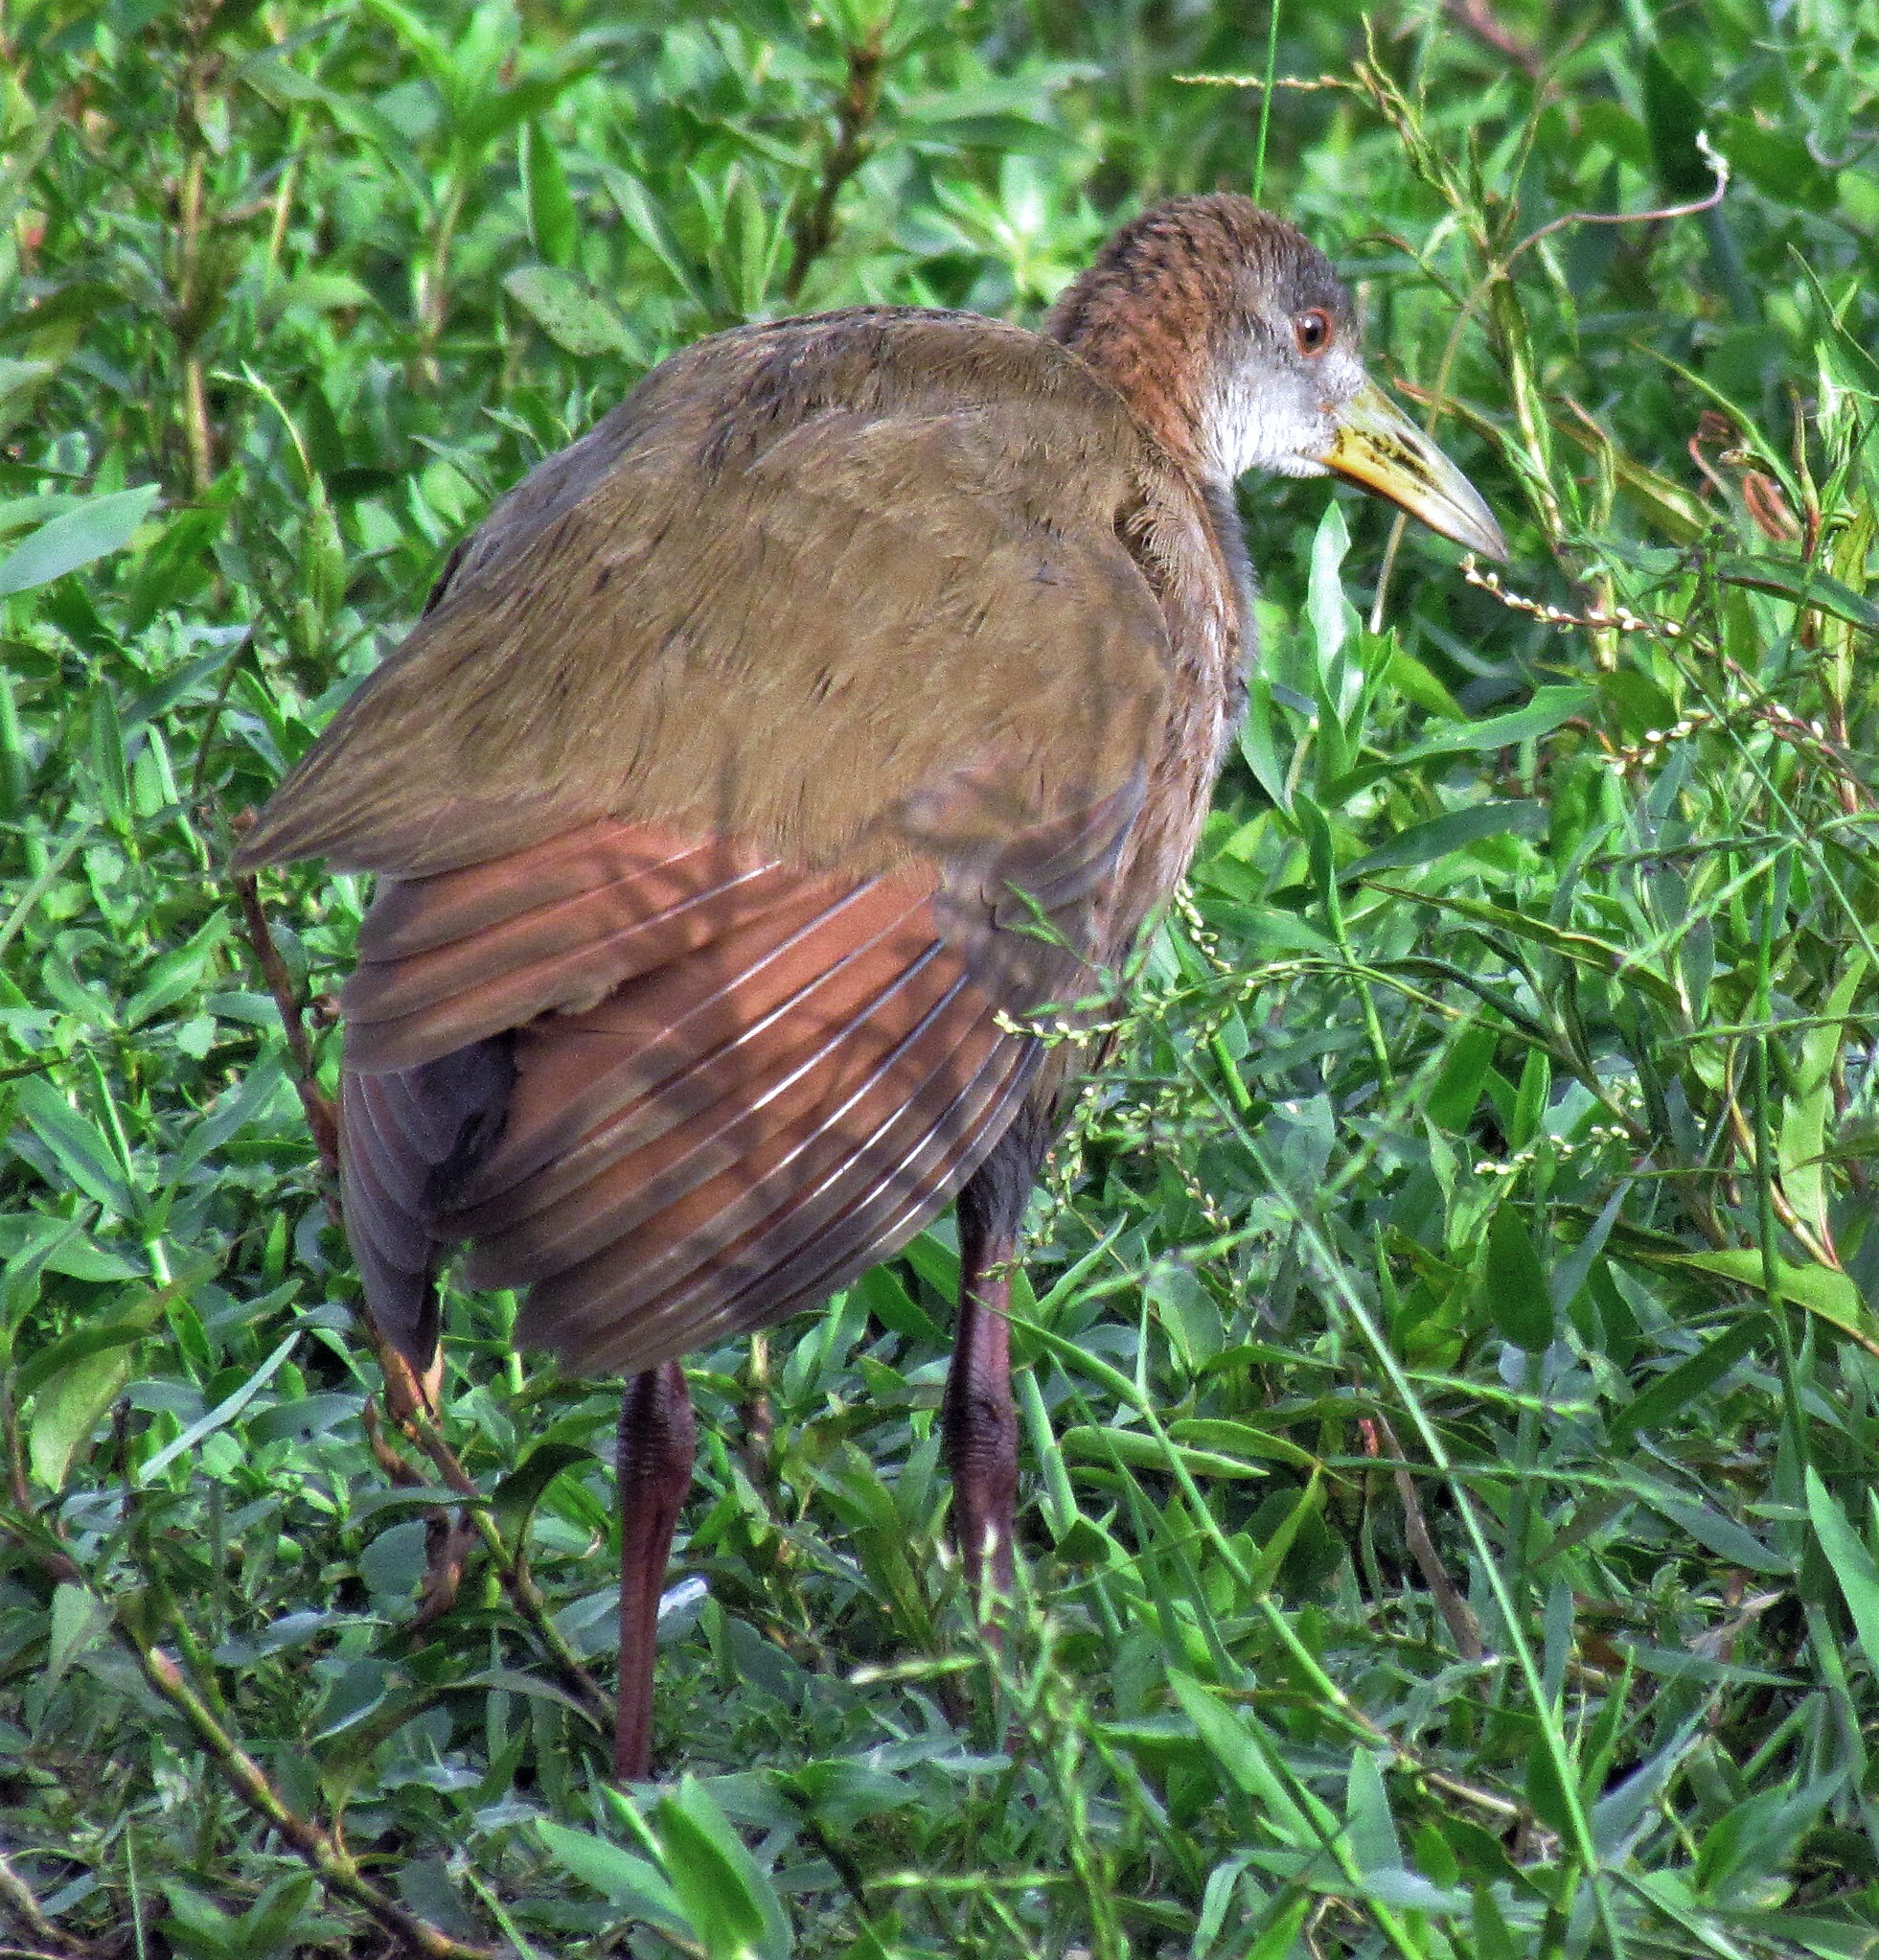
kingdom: Animalia
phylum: Chordata
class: Aves
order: Gruiformes
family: Rallidae
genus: Aramides
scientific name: Aramides ypecaha
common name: Giant wood rail
